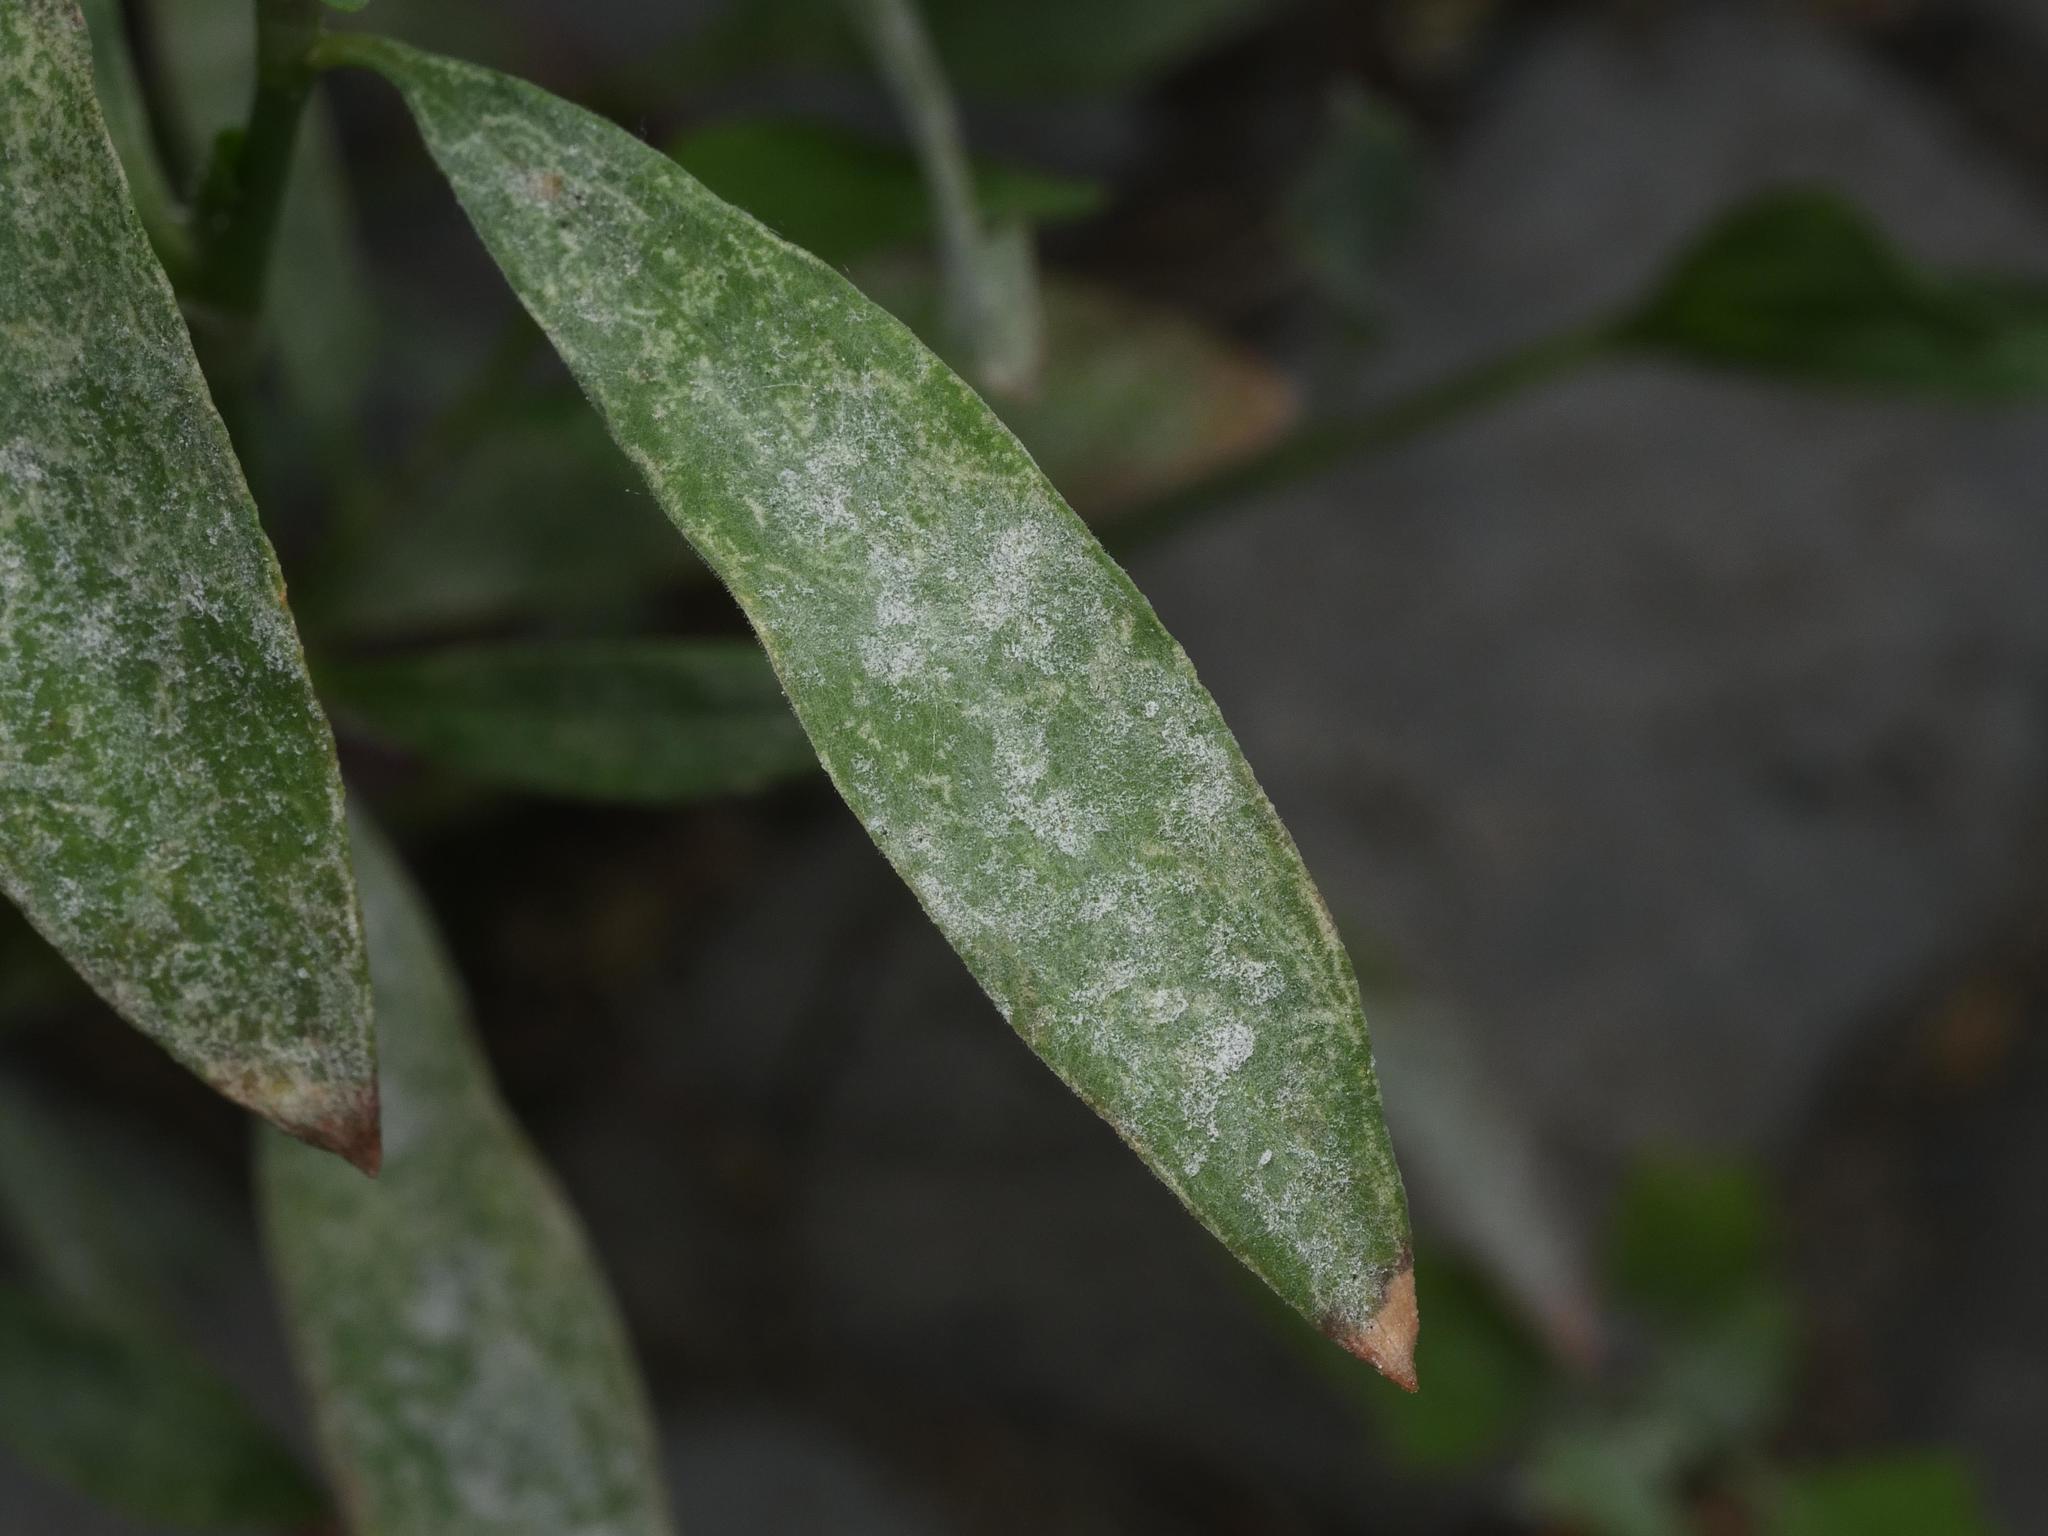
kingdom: Fungi
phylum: Ascomycota
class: Leotiomycetes
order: Helotiales
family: Erysiphaceae
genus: Erysiphe
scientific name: Erysiphe polygoni
